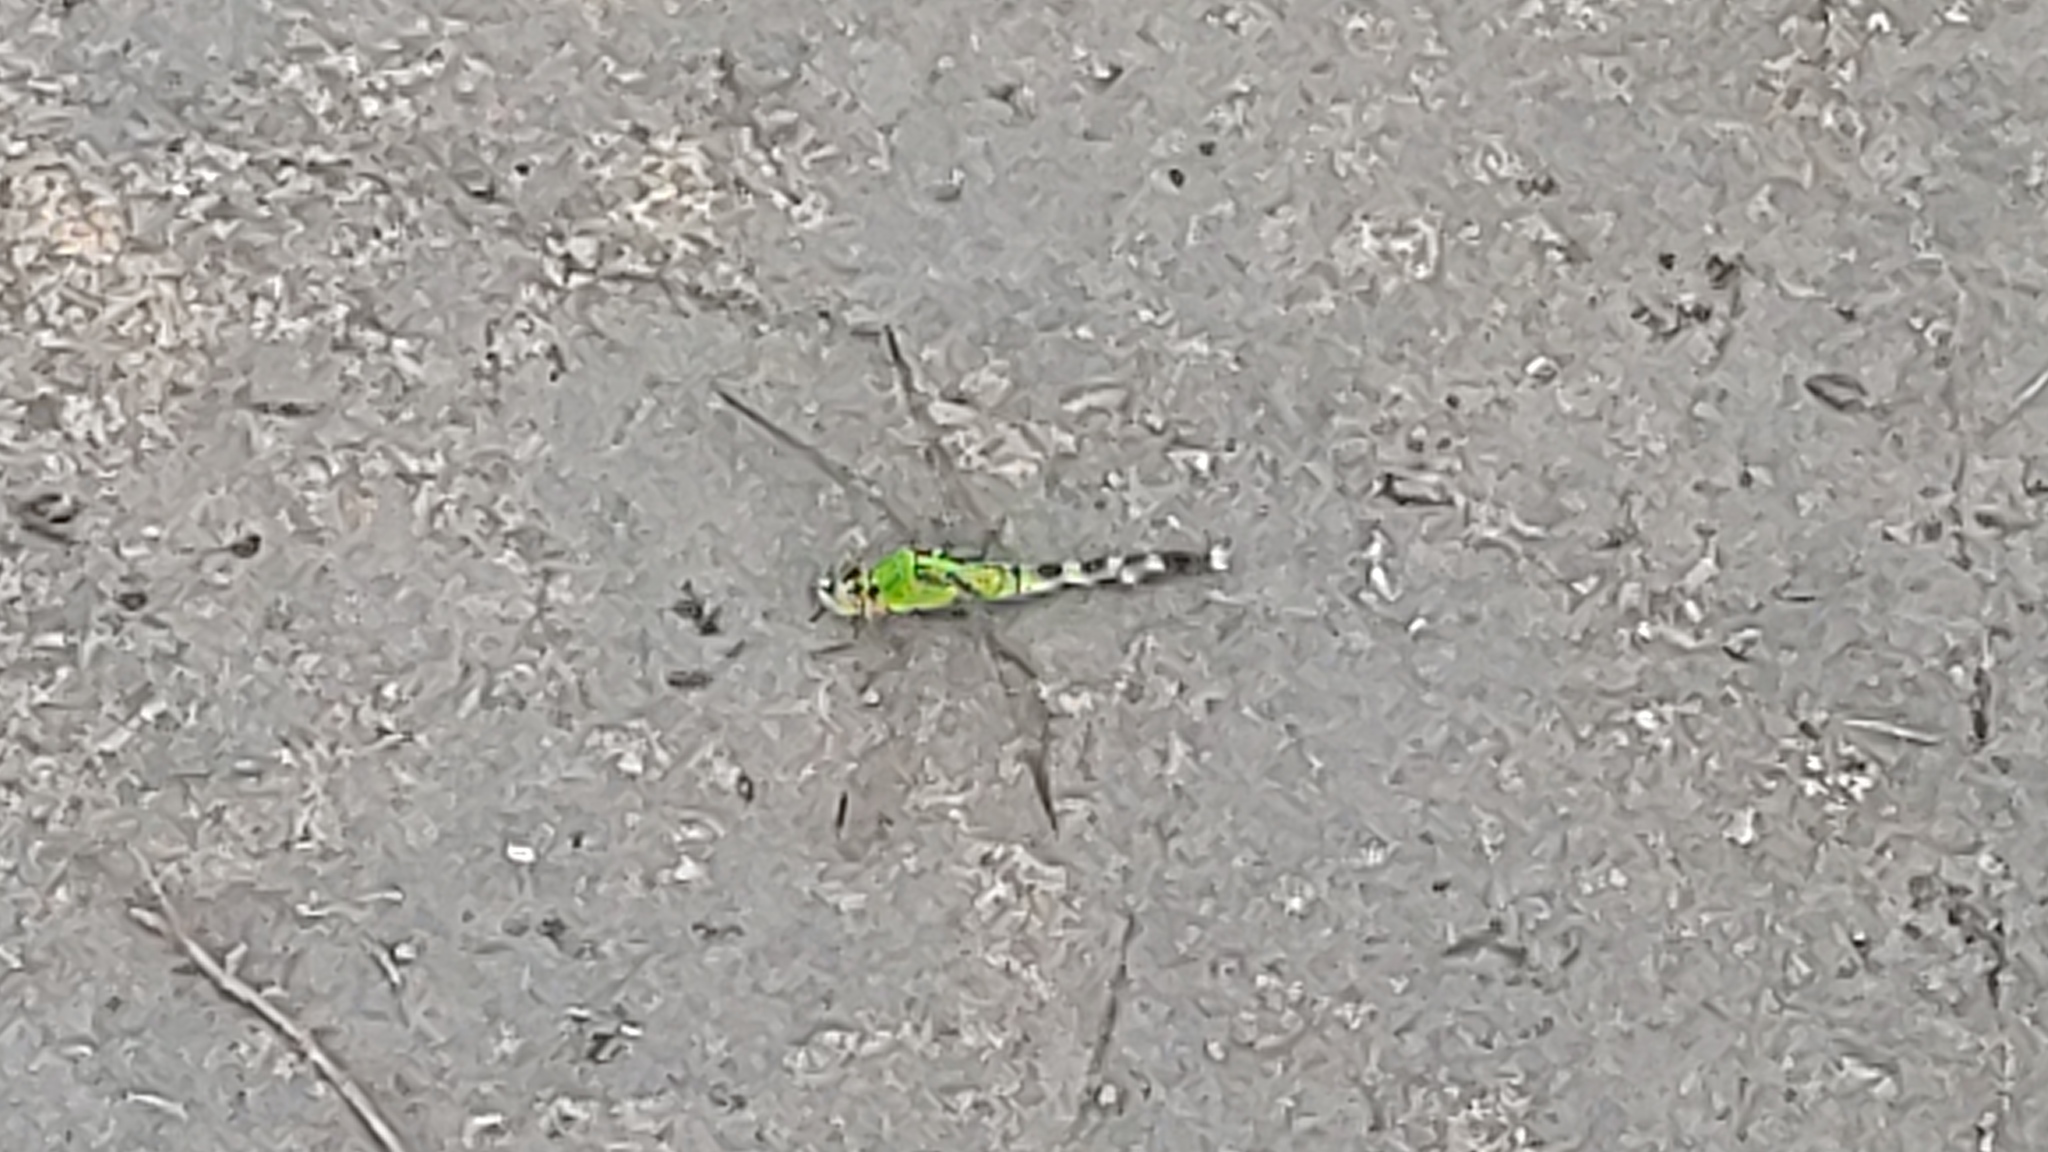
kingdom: Animalia
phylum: Arthropoda
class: Insecta
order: Odonata
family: Libellulidae
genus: Erythemis
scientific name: Erythemis simplicicollis
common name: Eastern pondhawk
